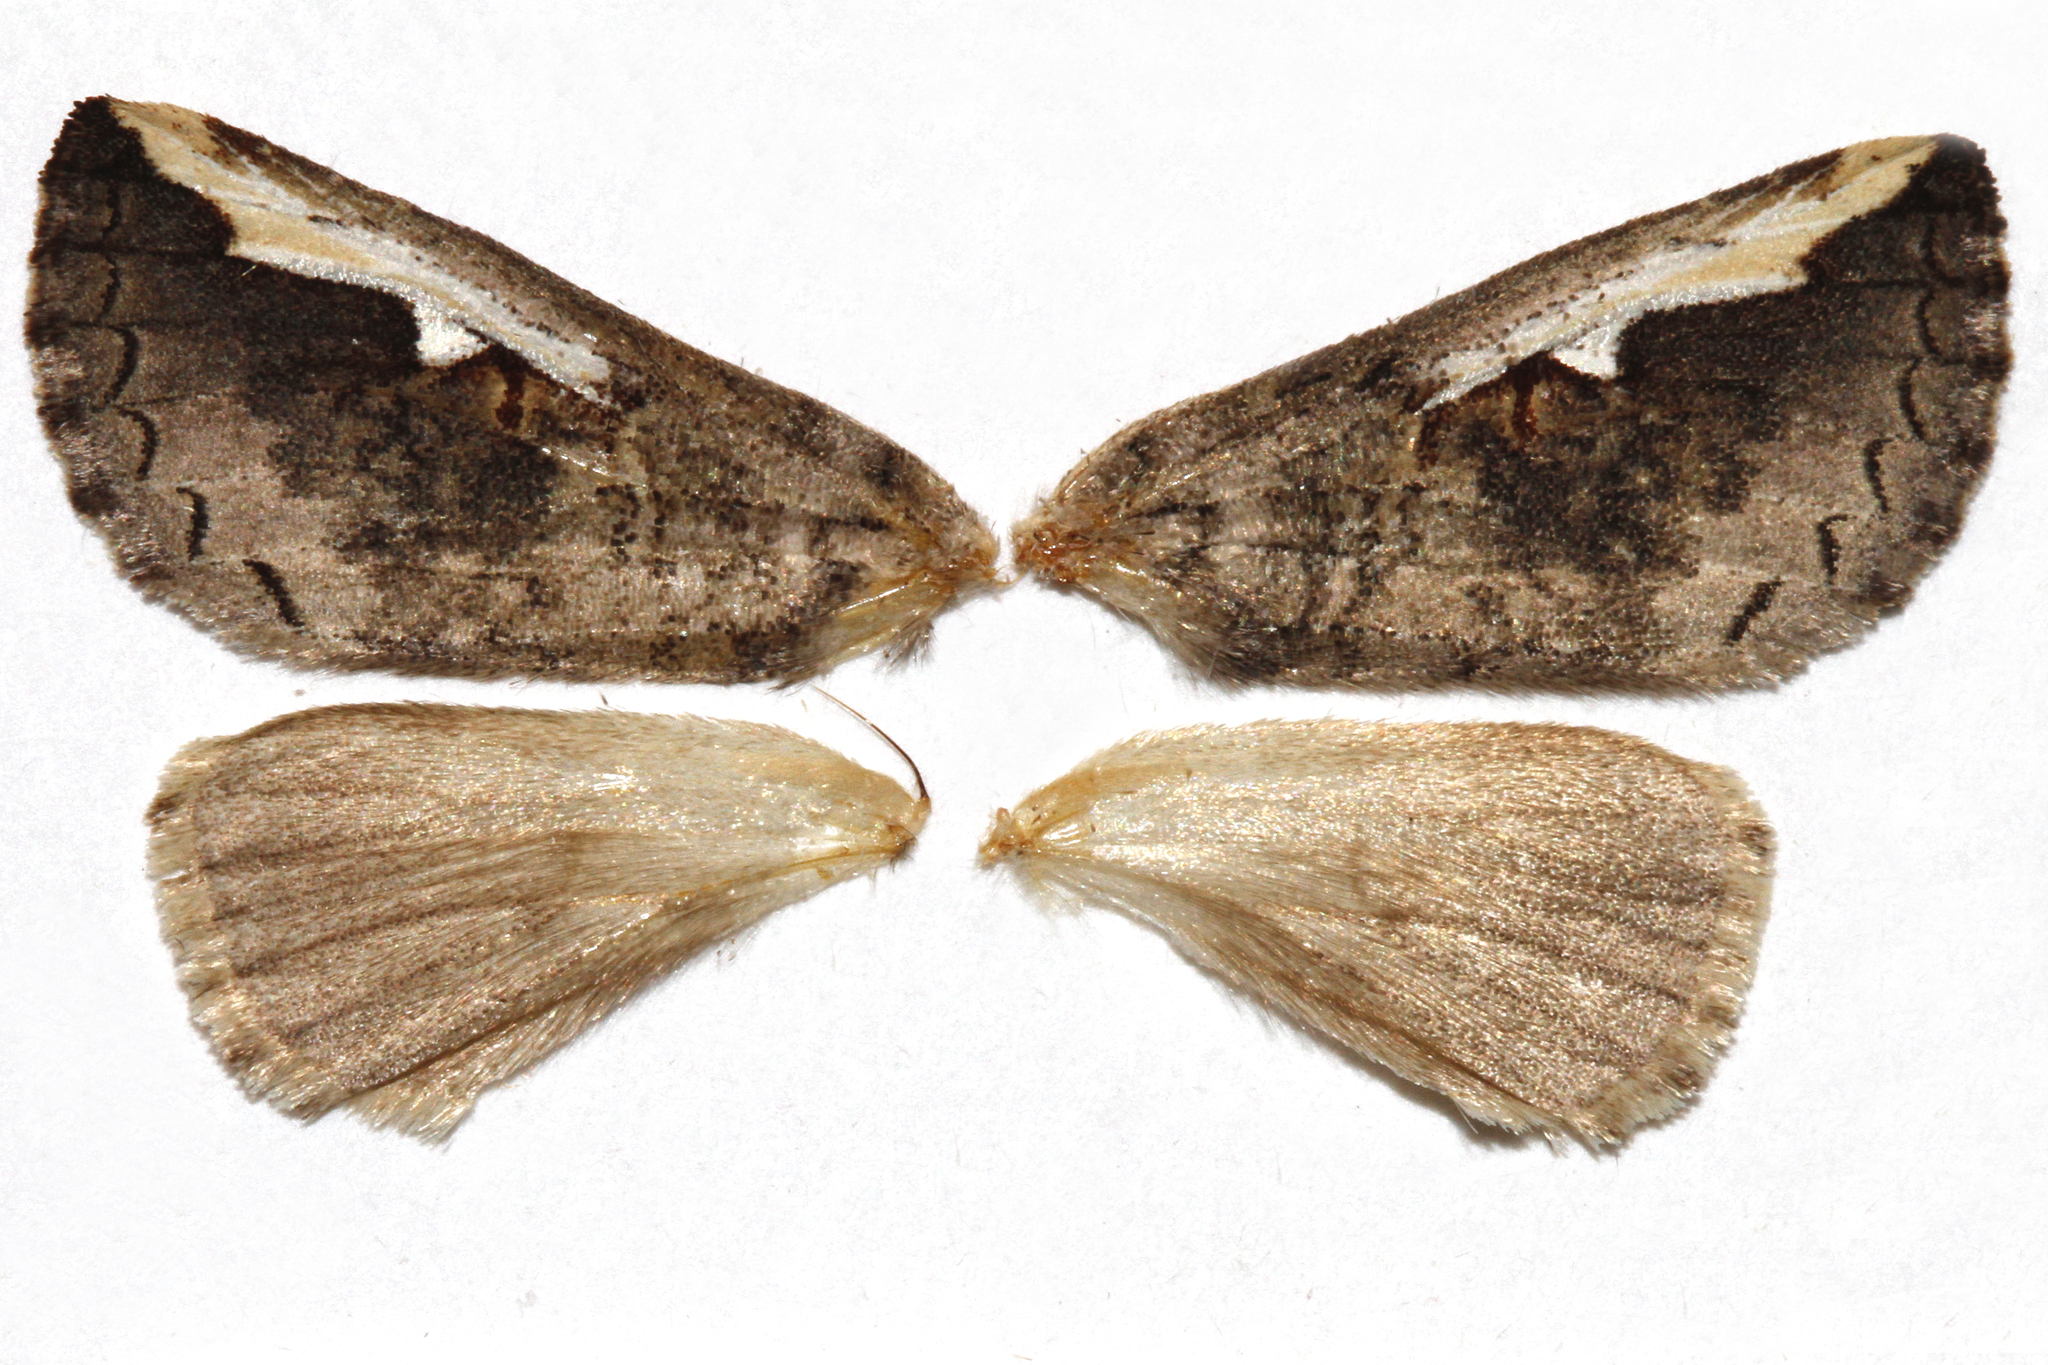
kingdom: Animalia
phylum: Arthropoda
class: Insecta
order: Lepidoptera
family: Notodontidae
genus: Symmerista
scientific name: Symmerista albifrons
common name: White-headed prominent
